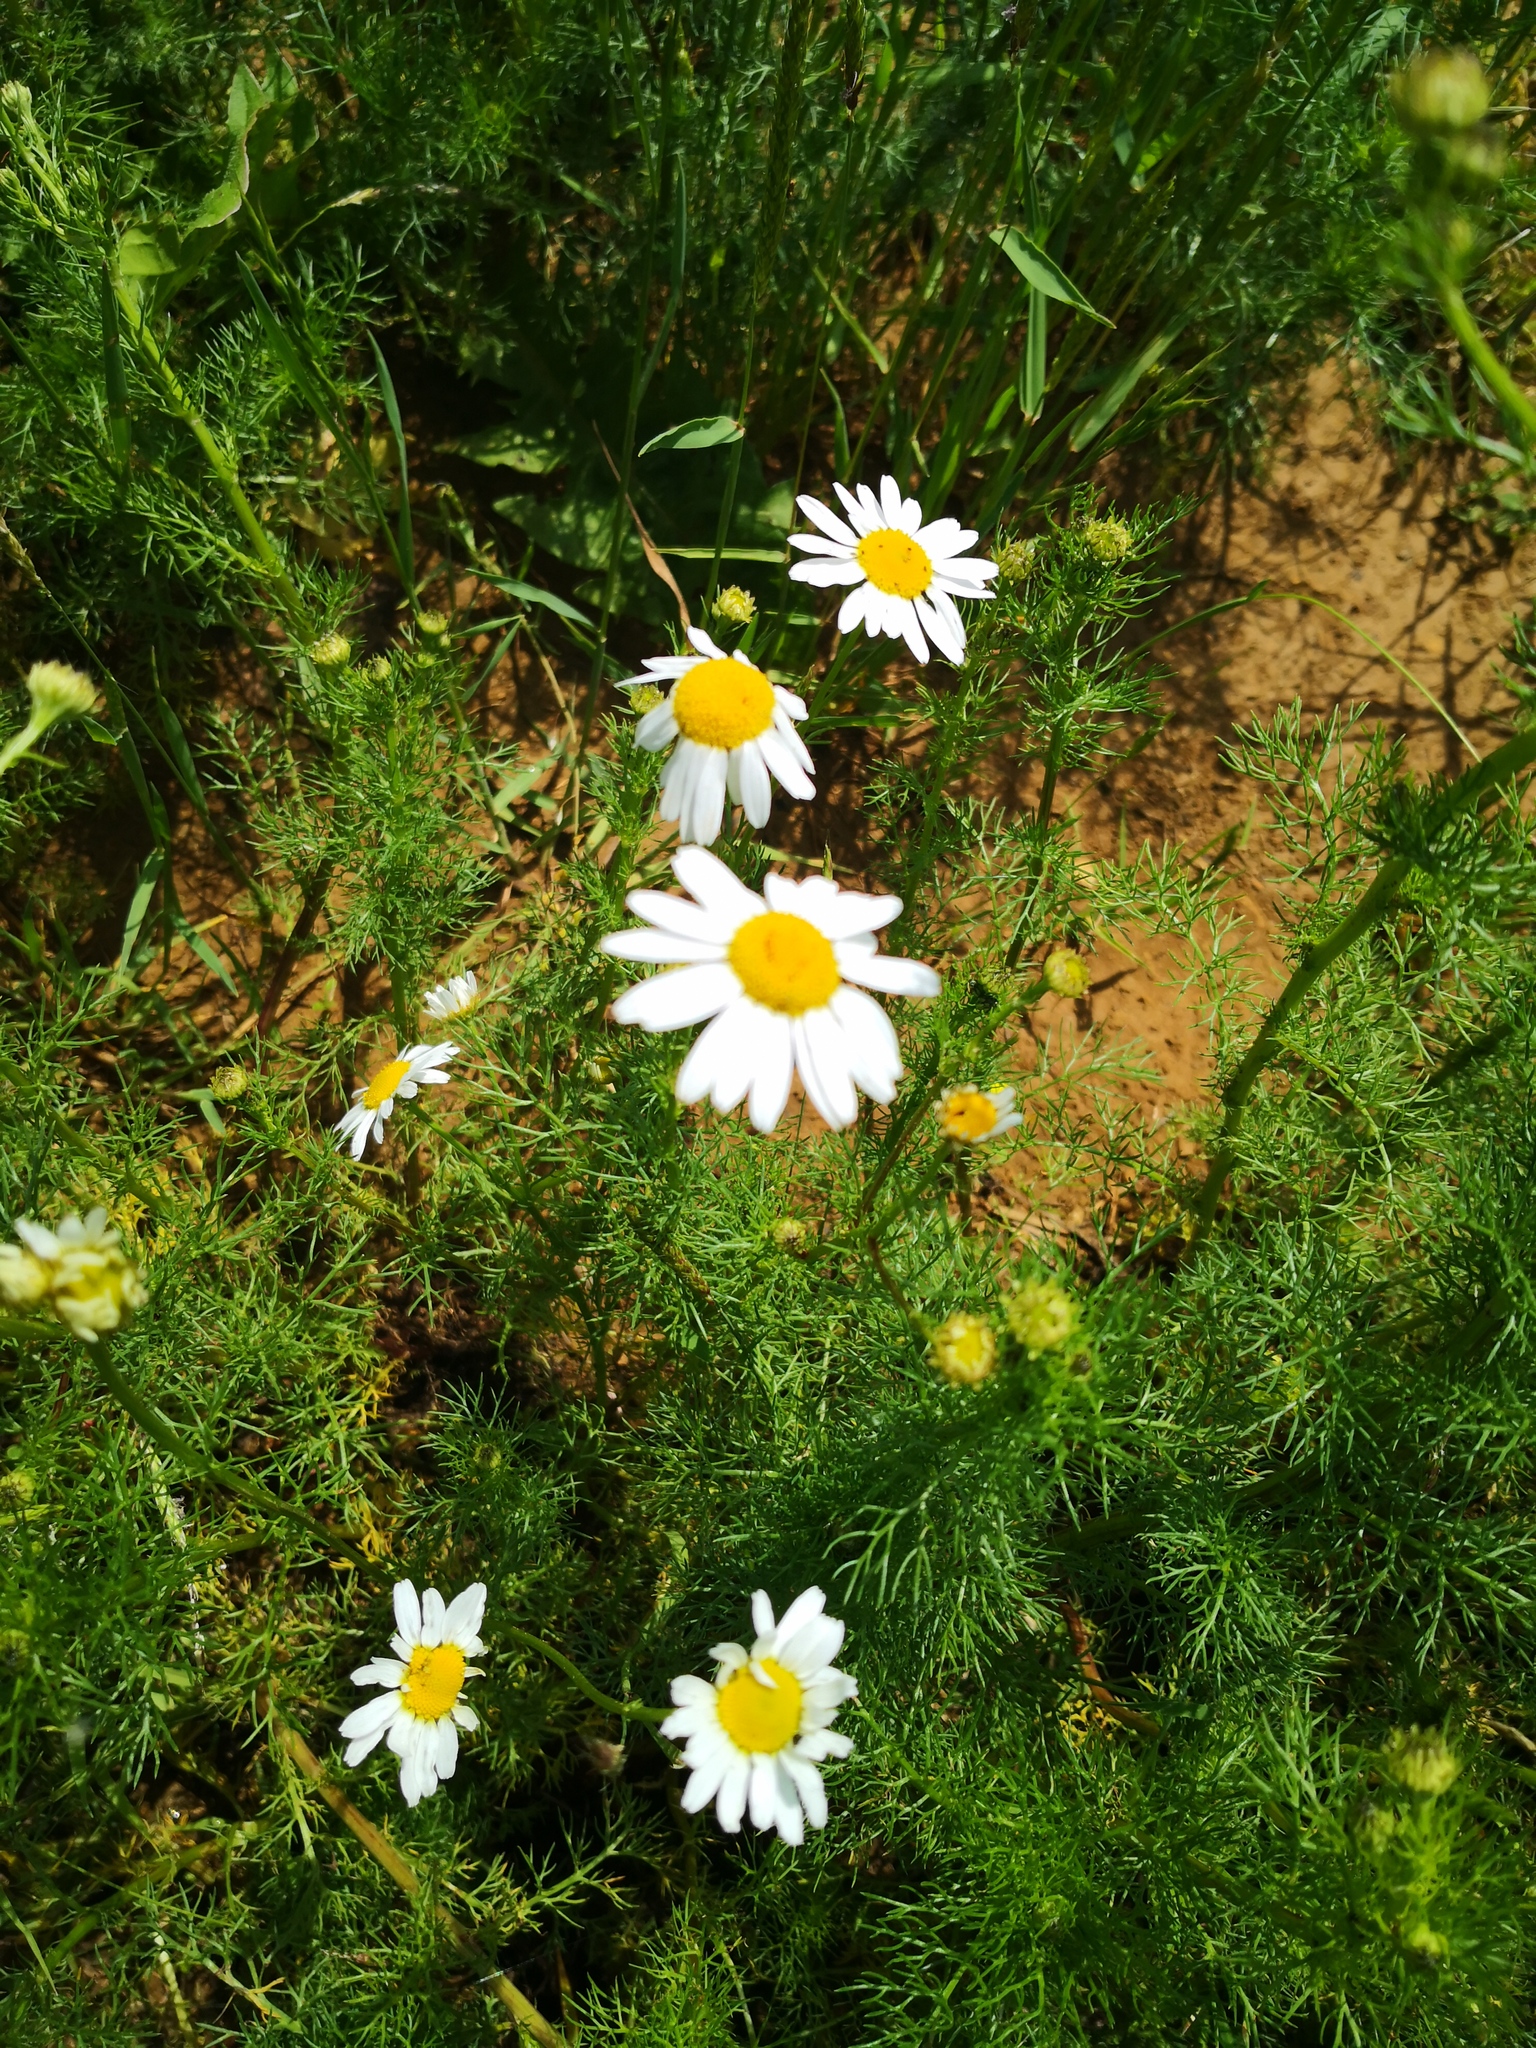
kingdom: Plantae
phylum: Tracheophyta
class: Magnoliopsida
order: Asterales
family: Asteraceae
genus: Tripleurospermum
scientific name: Tripleurospermum inodorum
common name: Scentless mayweed
